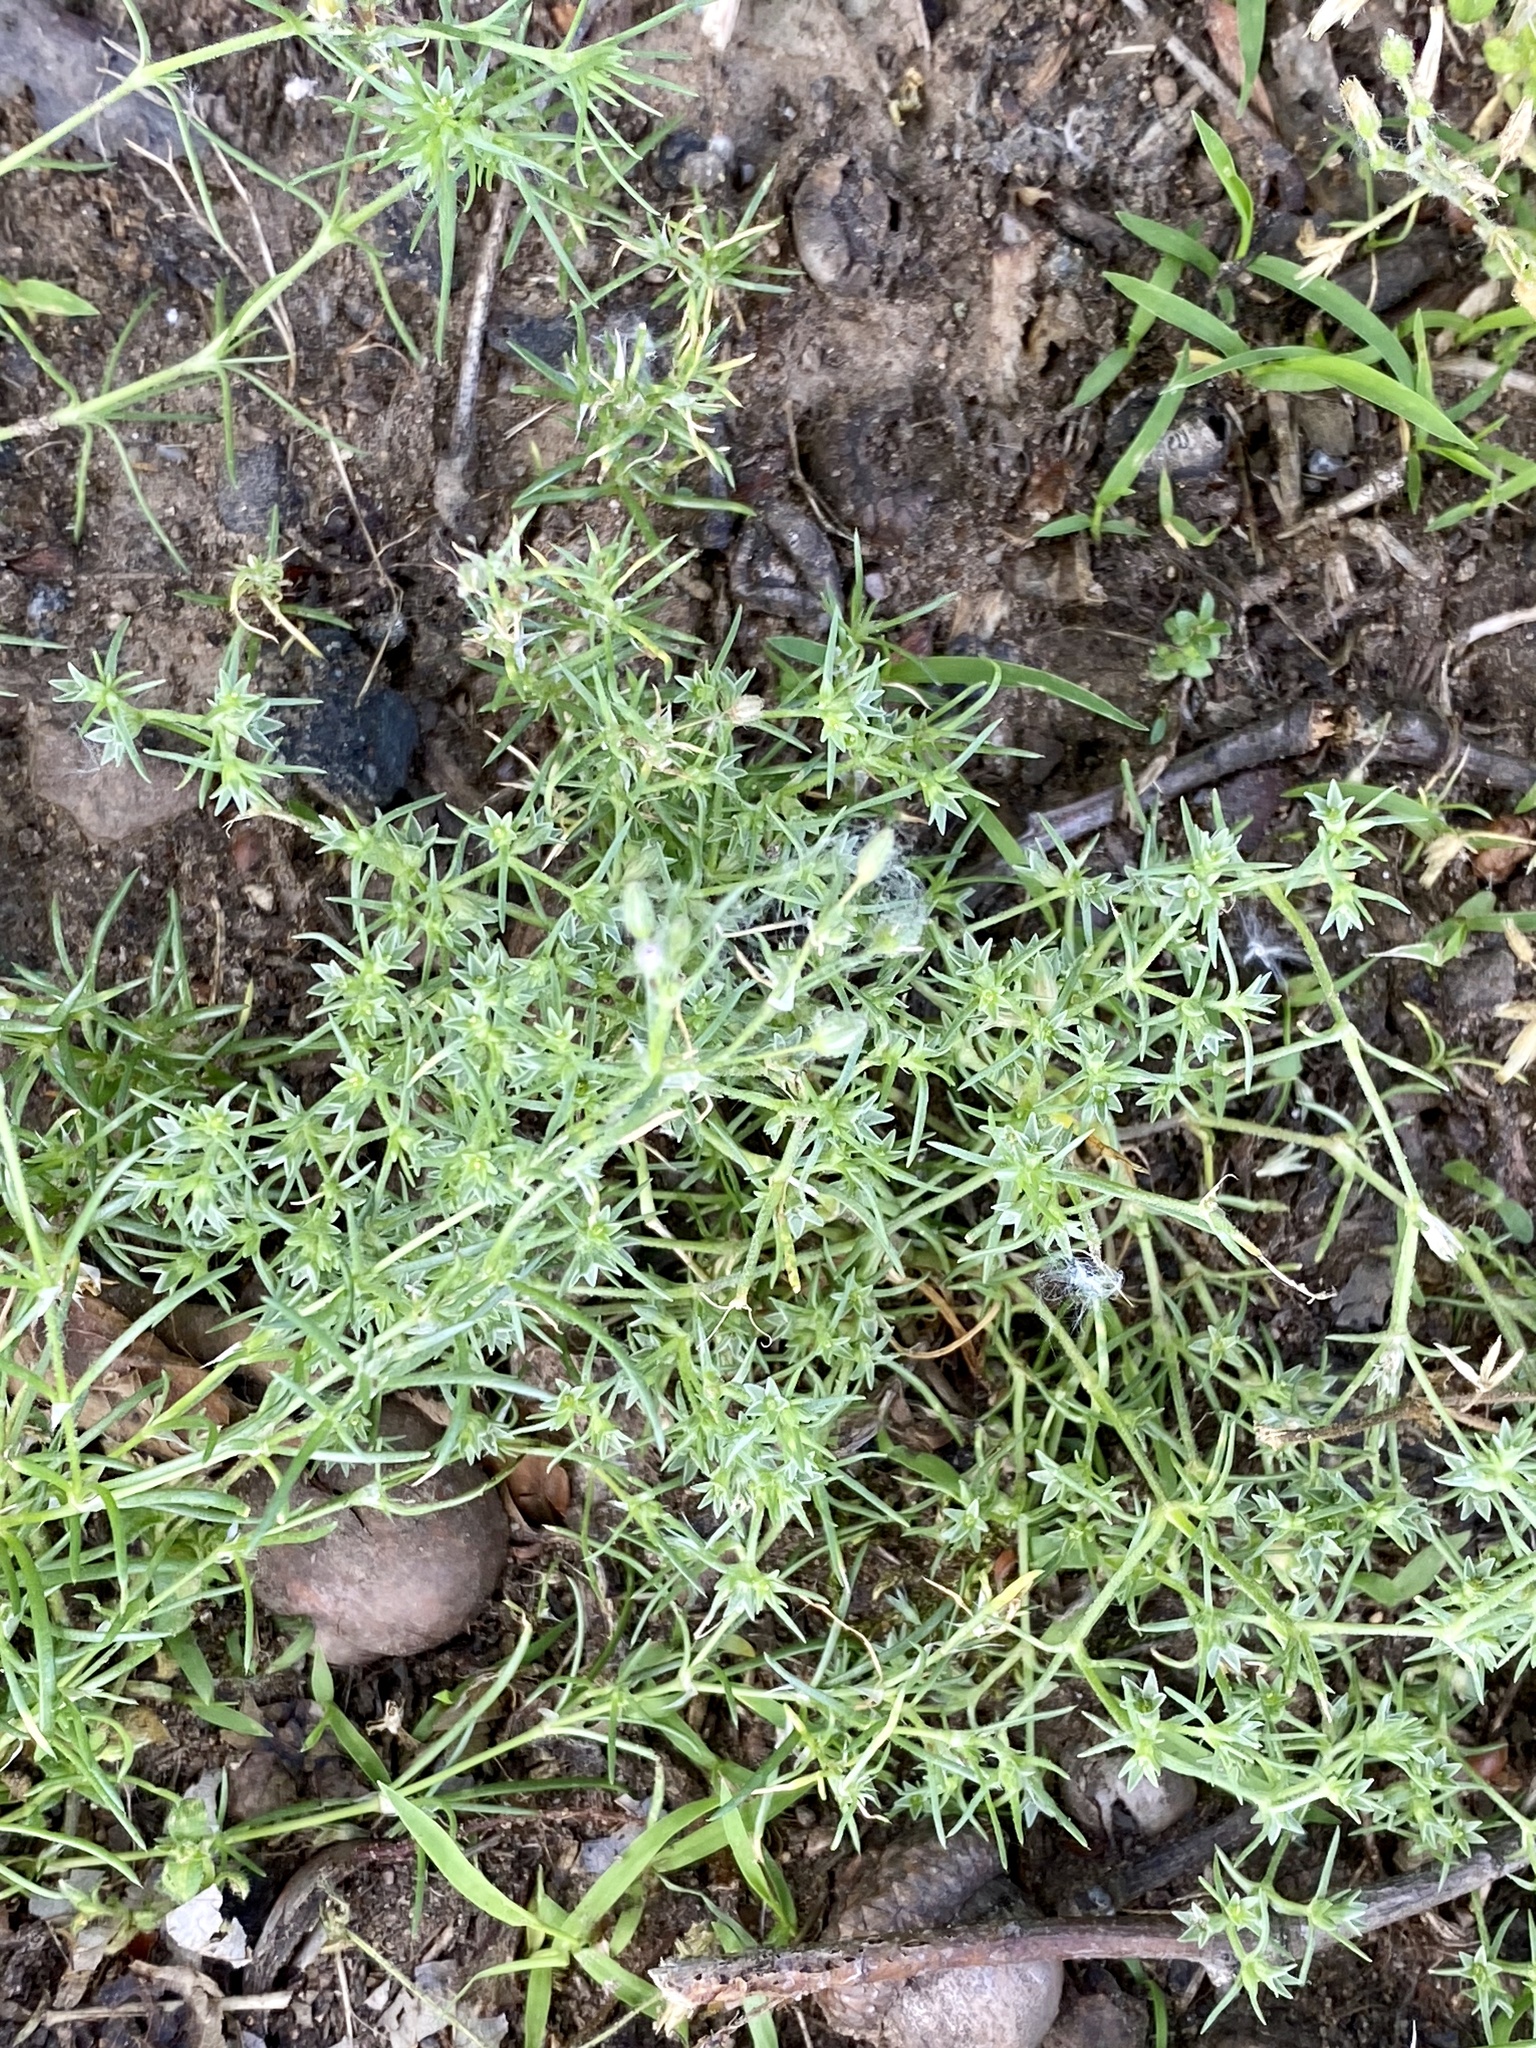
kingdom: Plantae
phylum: Tracheophyta
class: Magnoliopsida
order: Caryophyllales
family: Caryophyllaceae
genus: Scleranthus
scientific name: Scleranthus annuus
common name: Annual knawel
